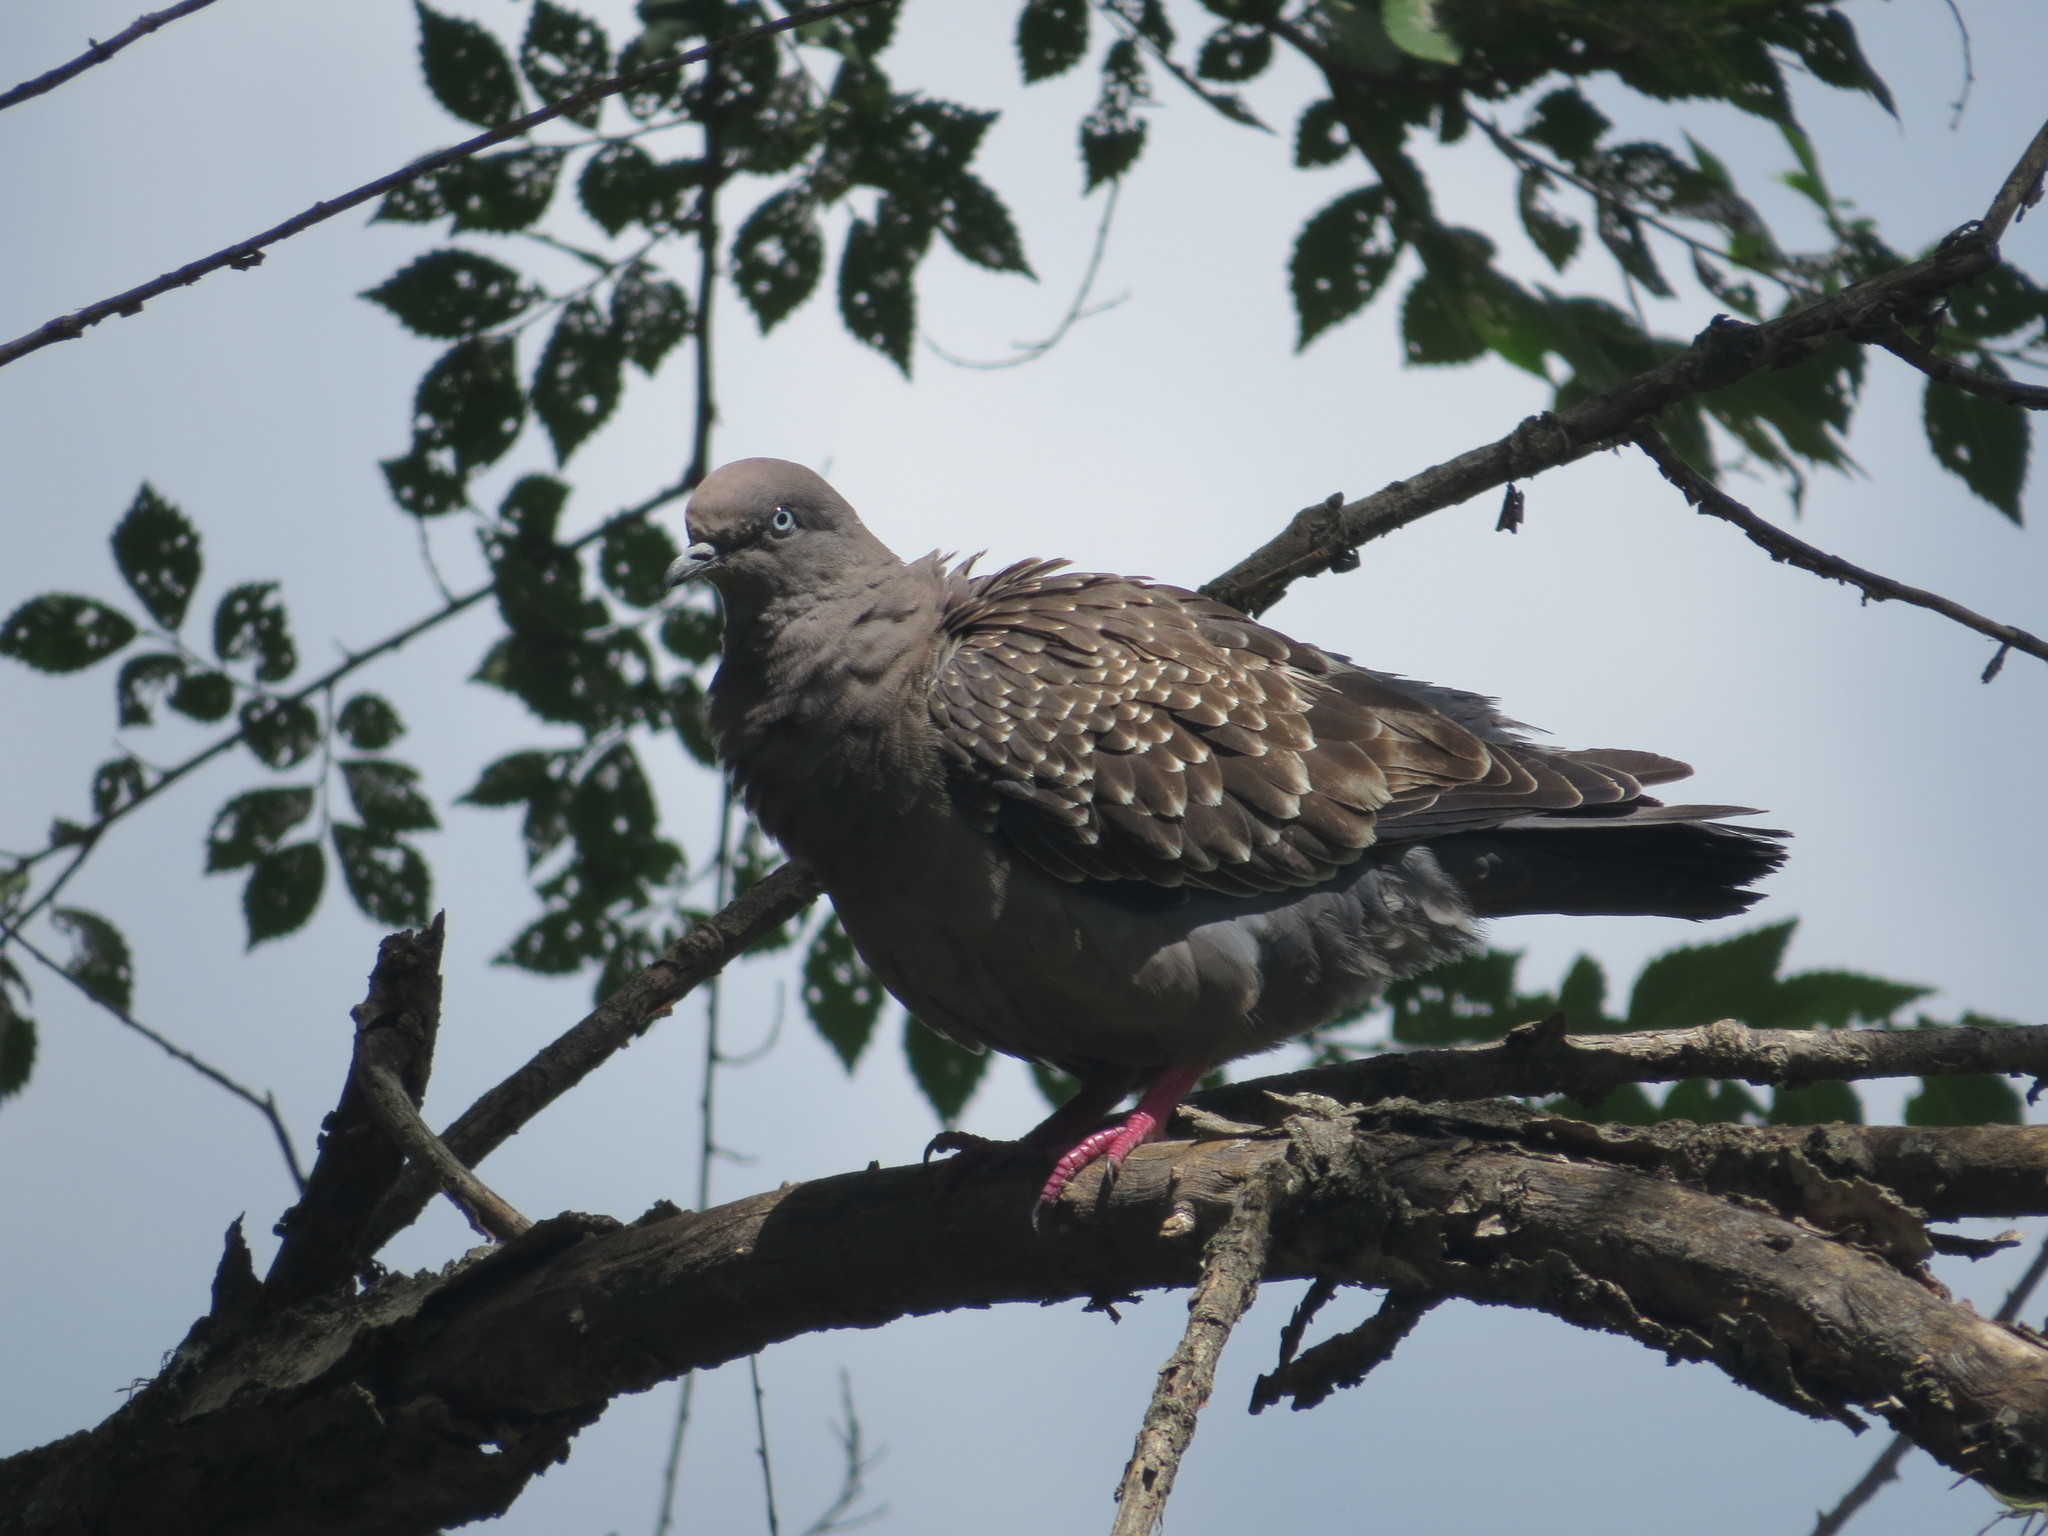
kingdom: Animalia
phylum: Chordata
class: Aves
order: Columbiformes
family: Columbidae
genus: Patagioenas
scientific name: Patagioenas maculosa
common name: Spot-winged pigeon
